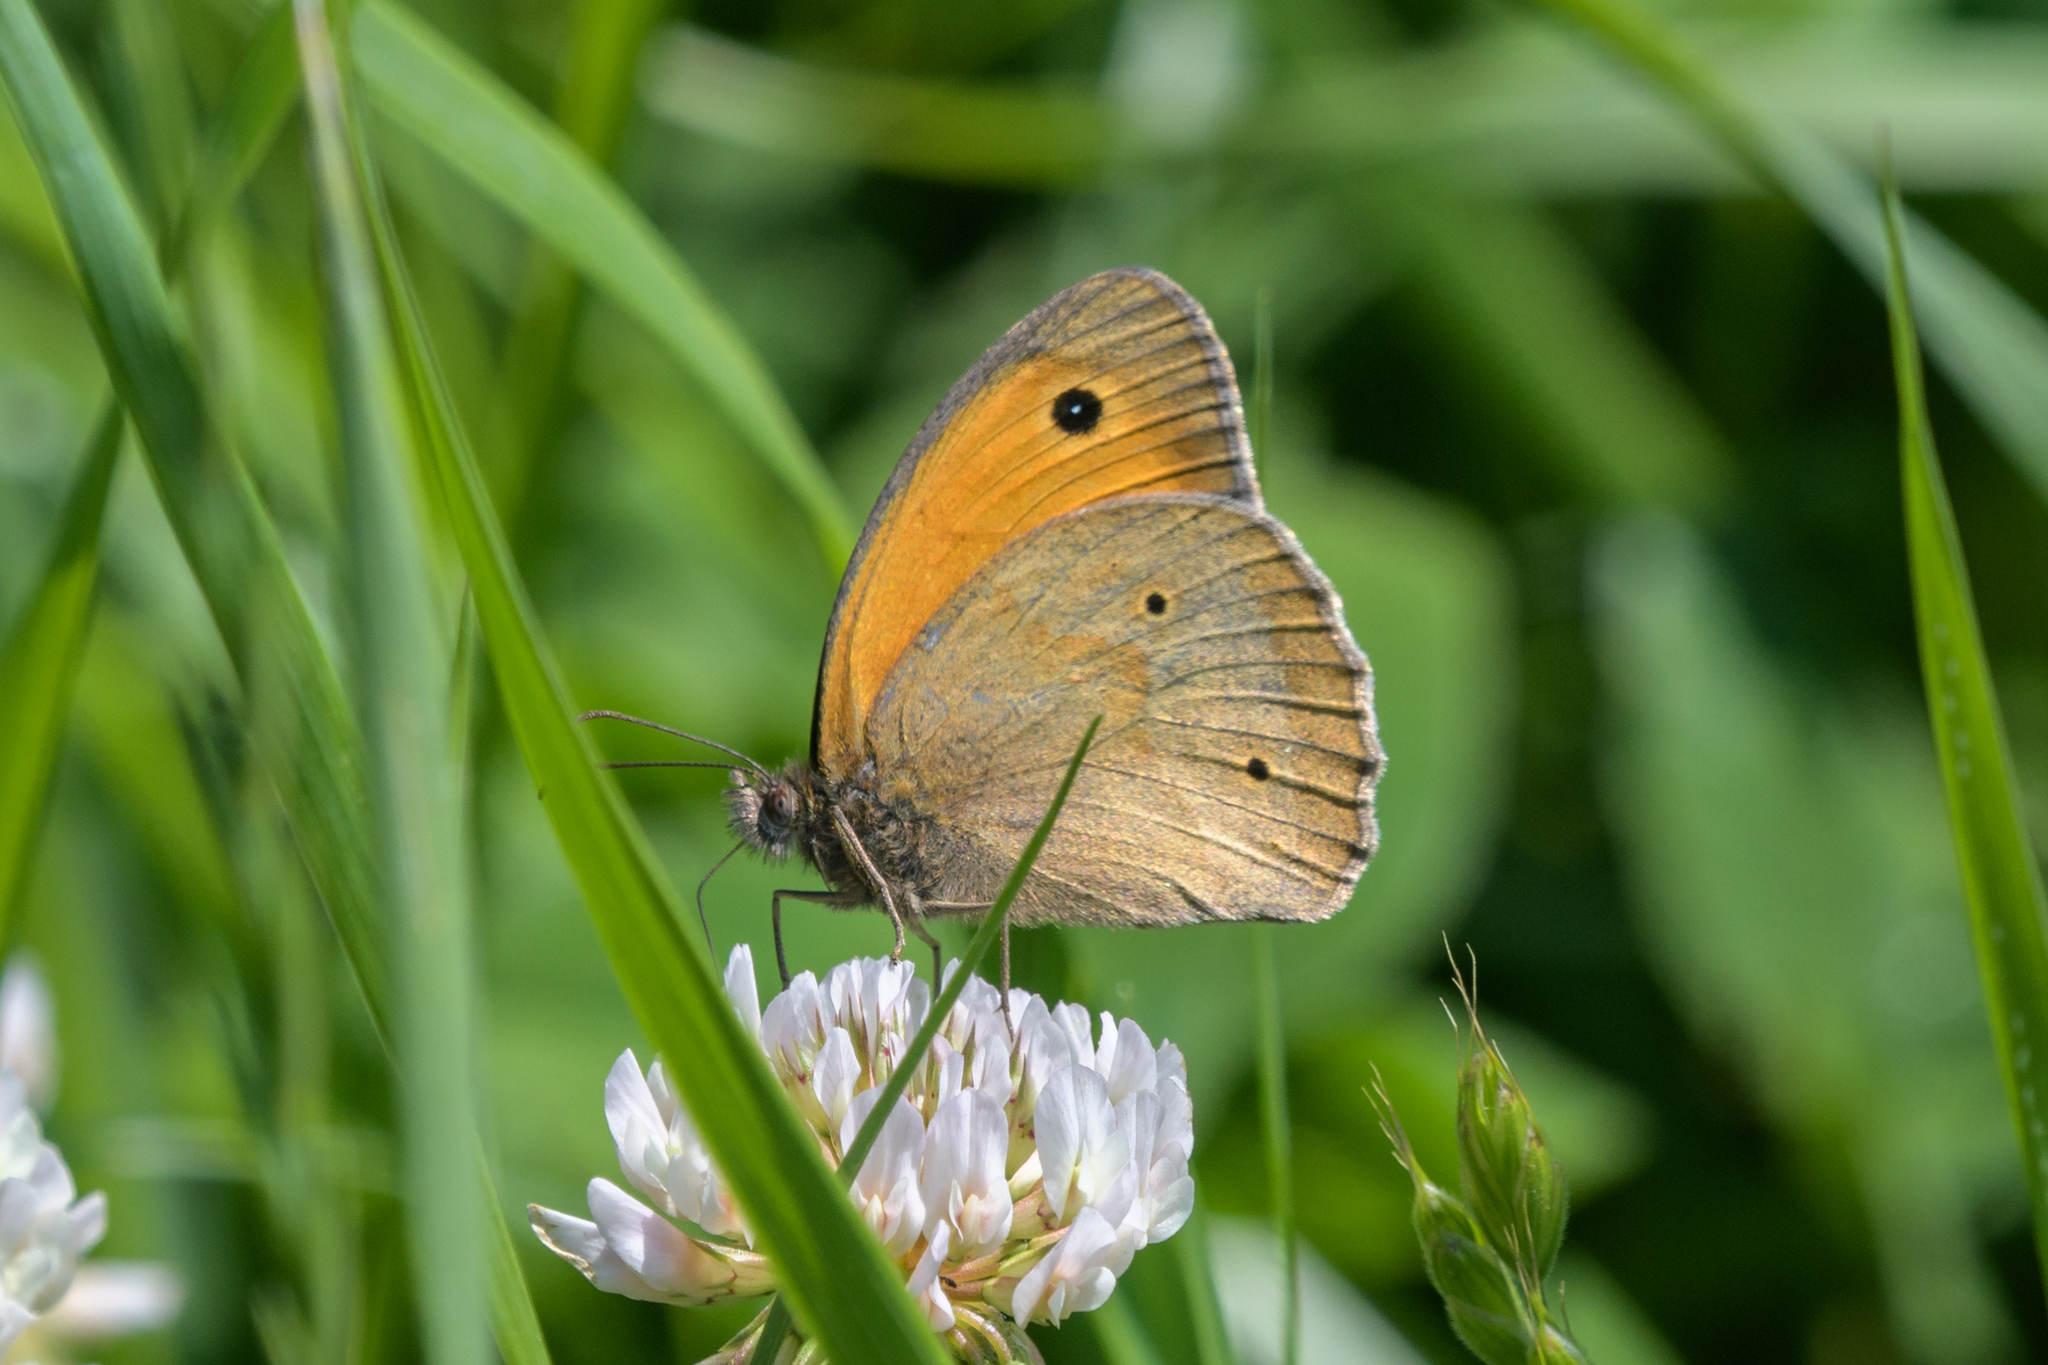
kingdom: Animalia
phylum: Arthropoda
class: Insecta
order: Lepidoptera
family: Nymphalidae
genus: Maniola
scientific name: Maniola jurtina
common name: Meadow brown
